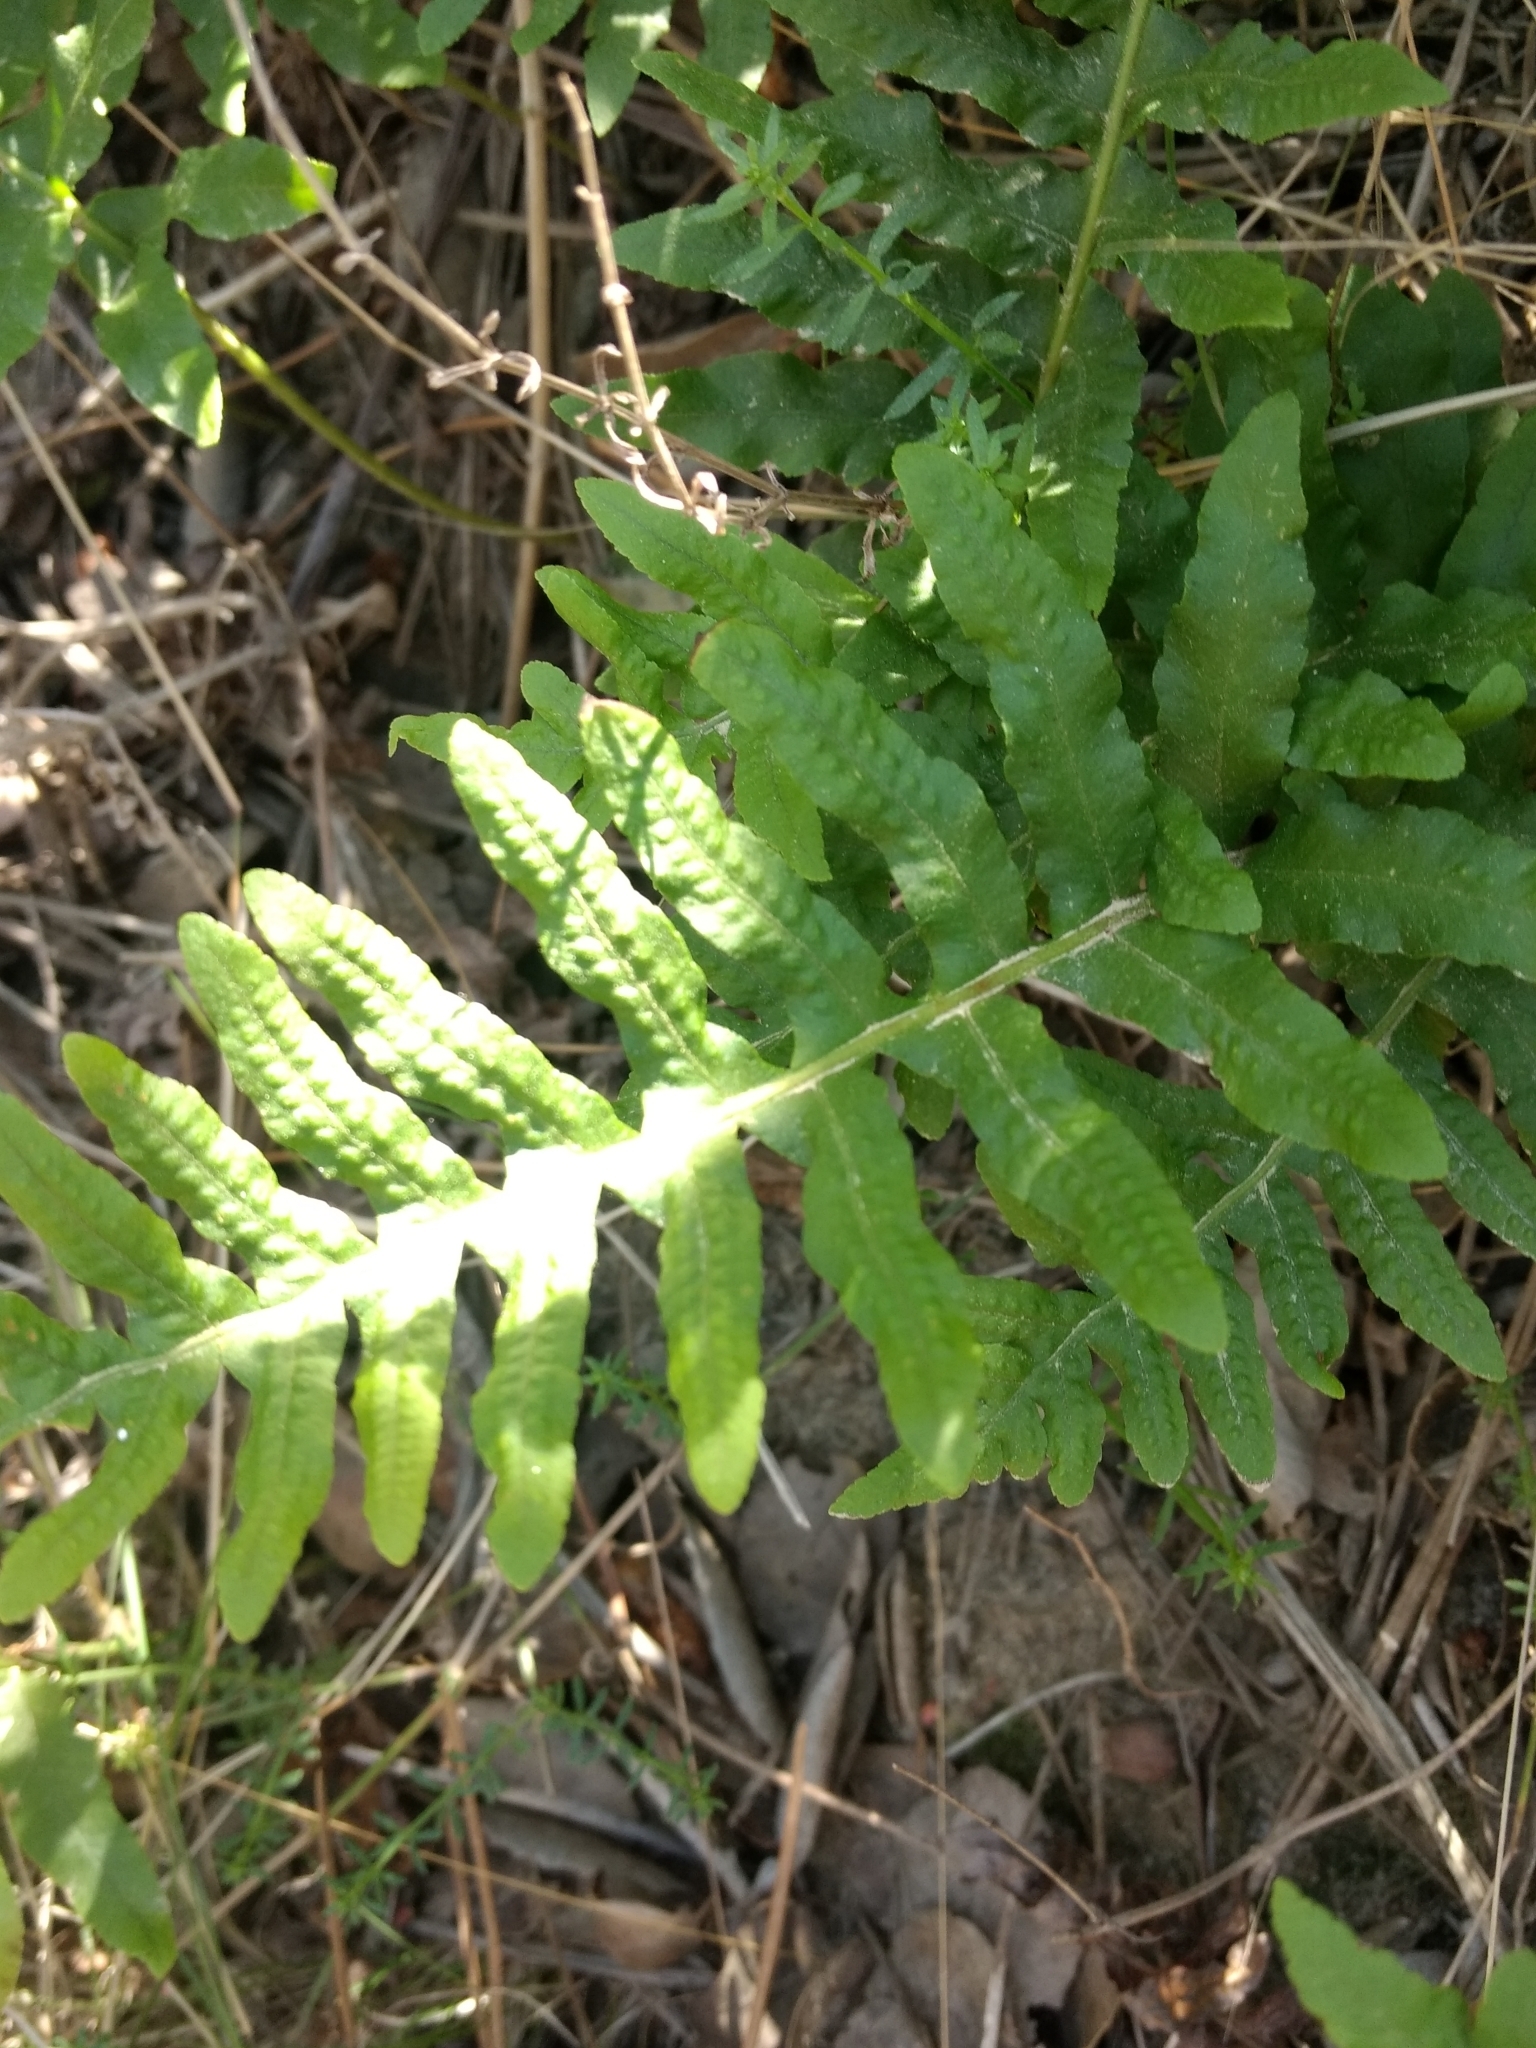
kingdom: Plantae
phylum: Tracheophyta
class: Polypodiopsida
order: Polypodiales
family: Polypodiaceae
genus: Polypodium
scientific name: Polypodium californicum
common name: California polypody
